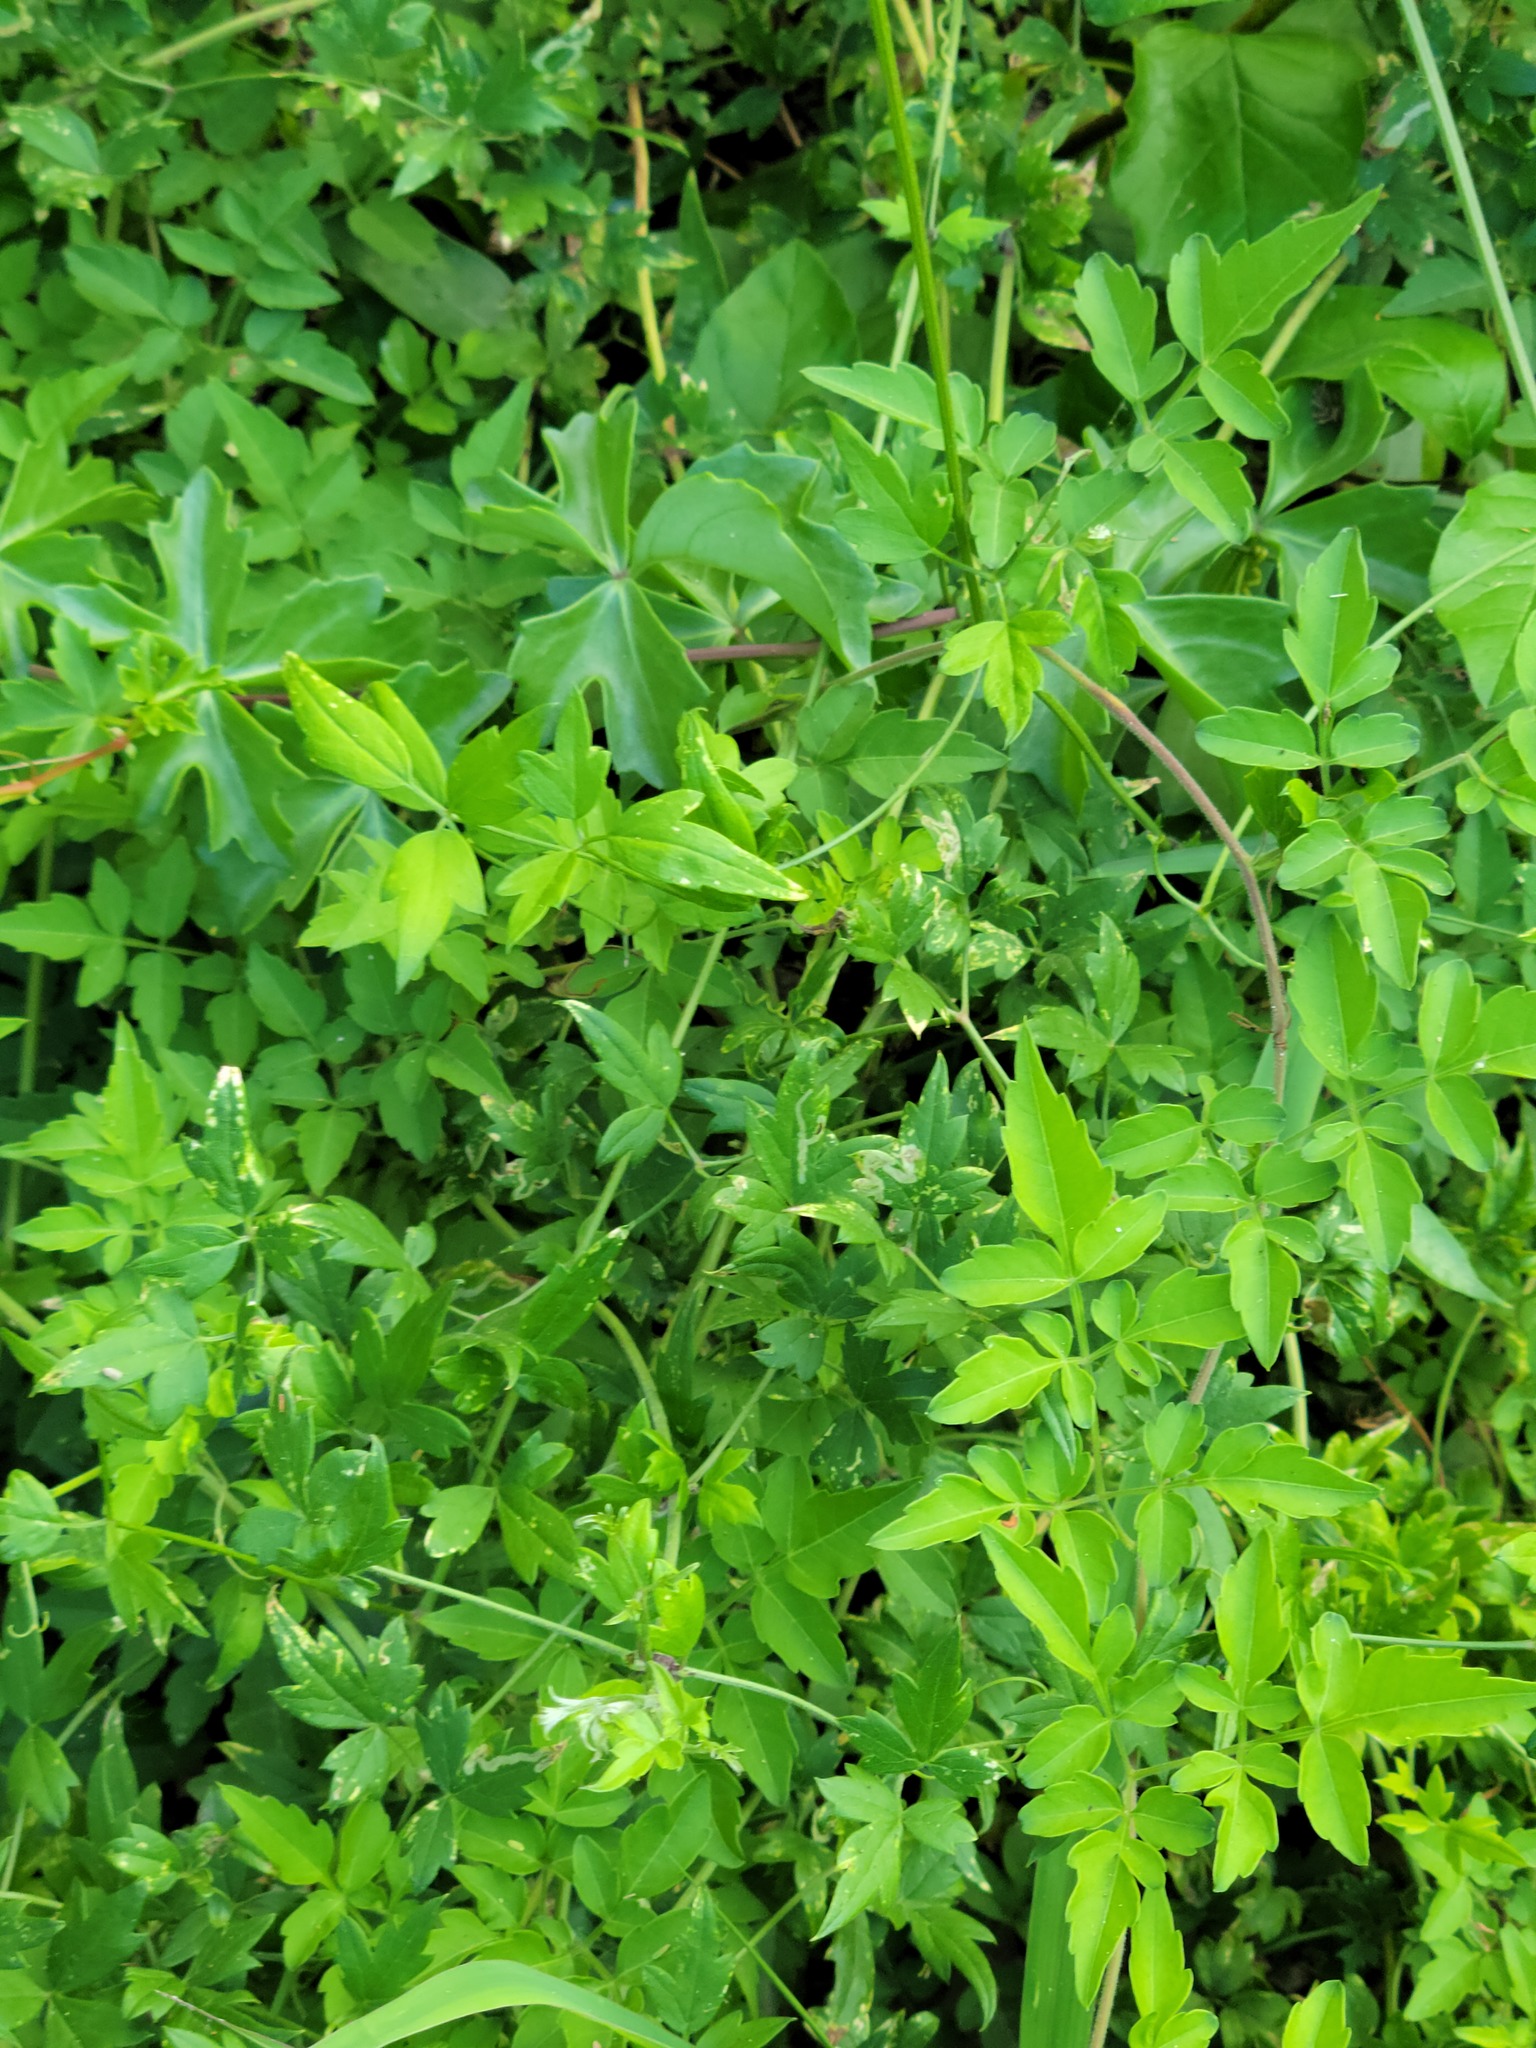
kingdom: Plantae
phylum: Tracheophyta
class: Magnoliopsida
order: Ranunculales
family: Ranunculaceae
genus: Clematis
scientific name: Clematis drummondii
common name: Texas virgin's bower
